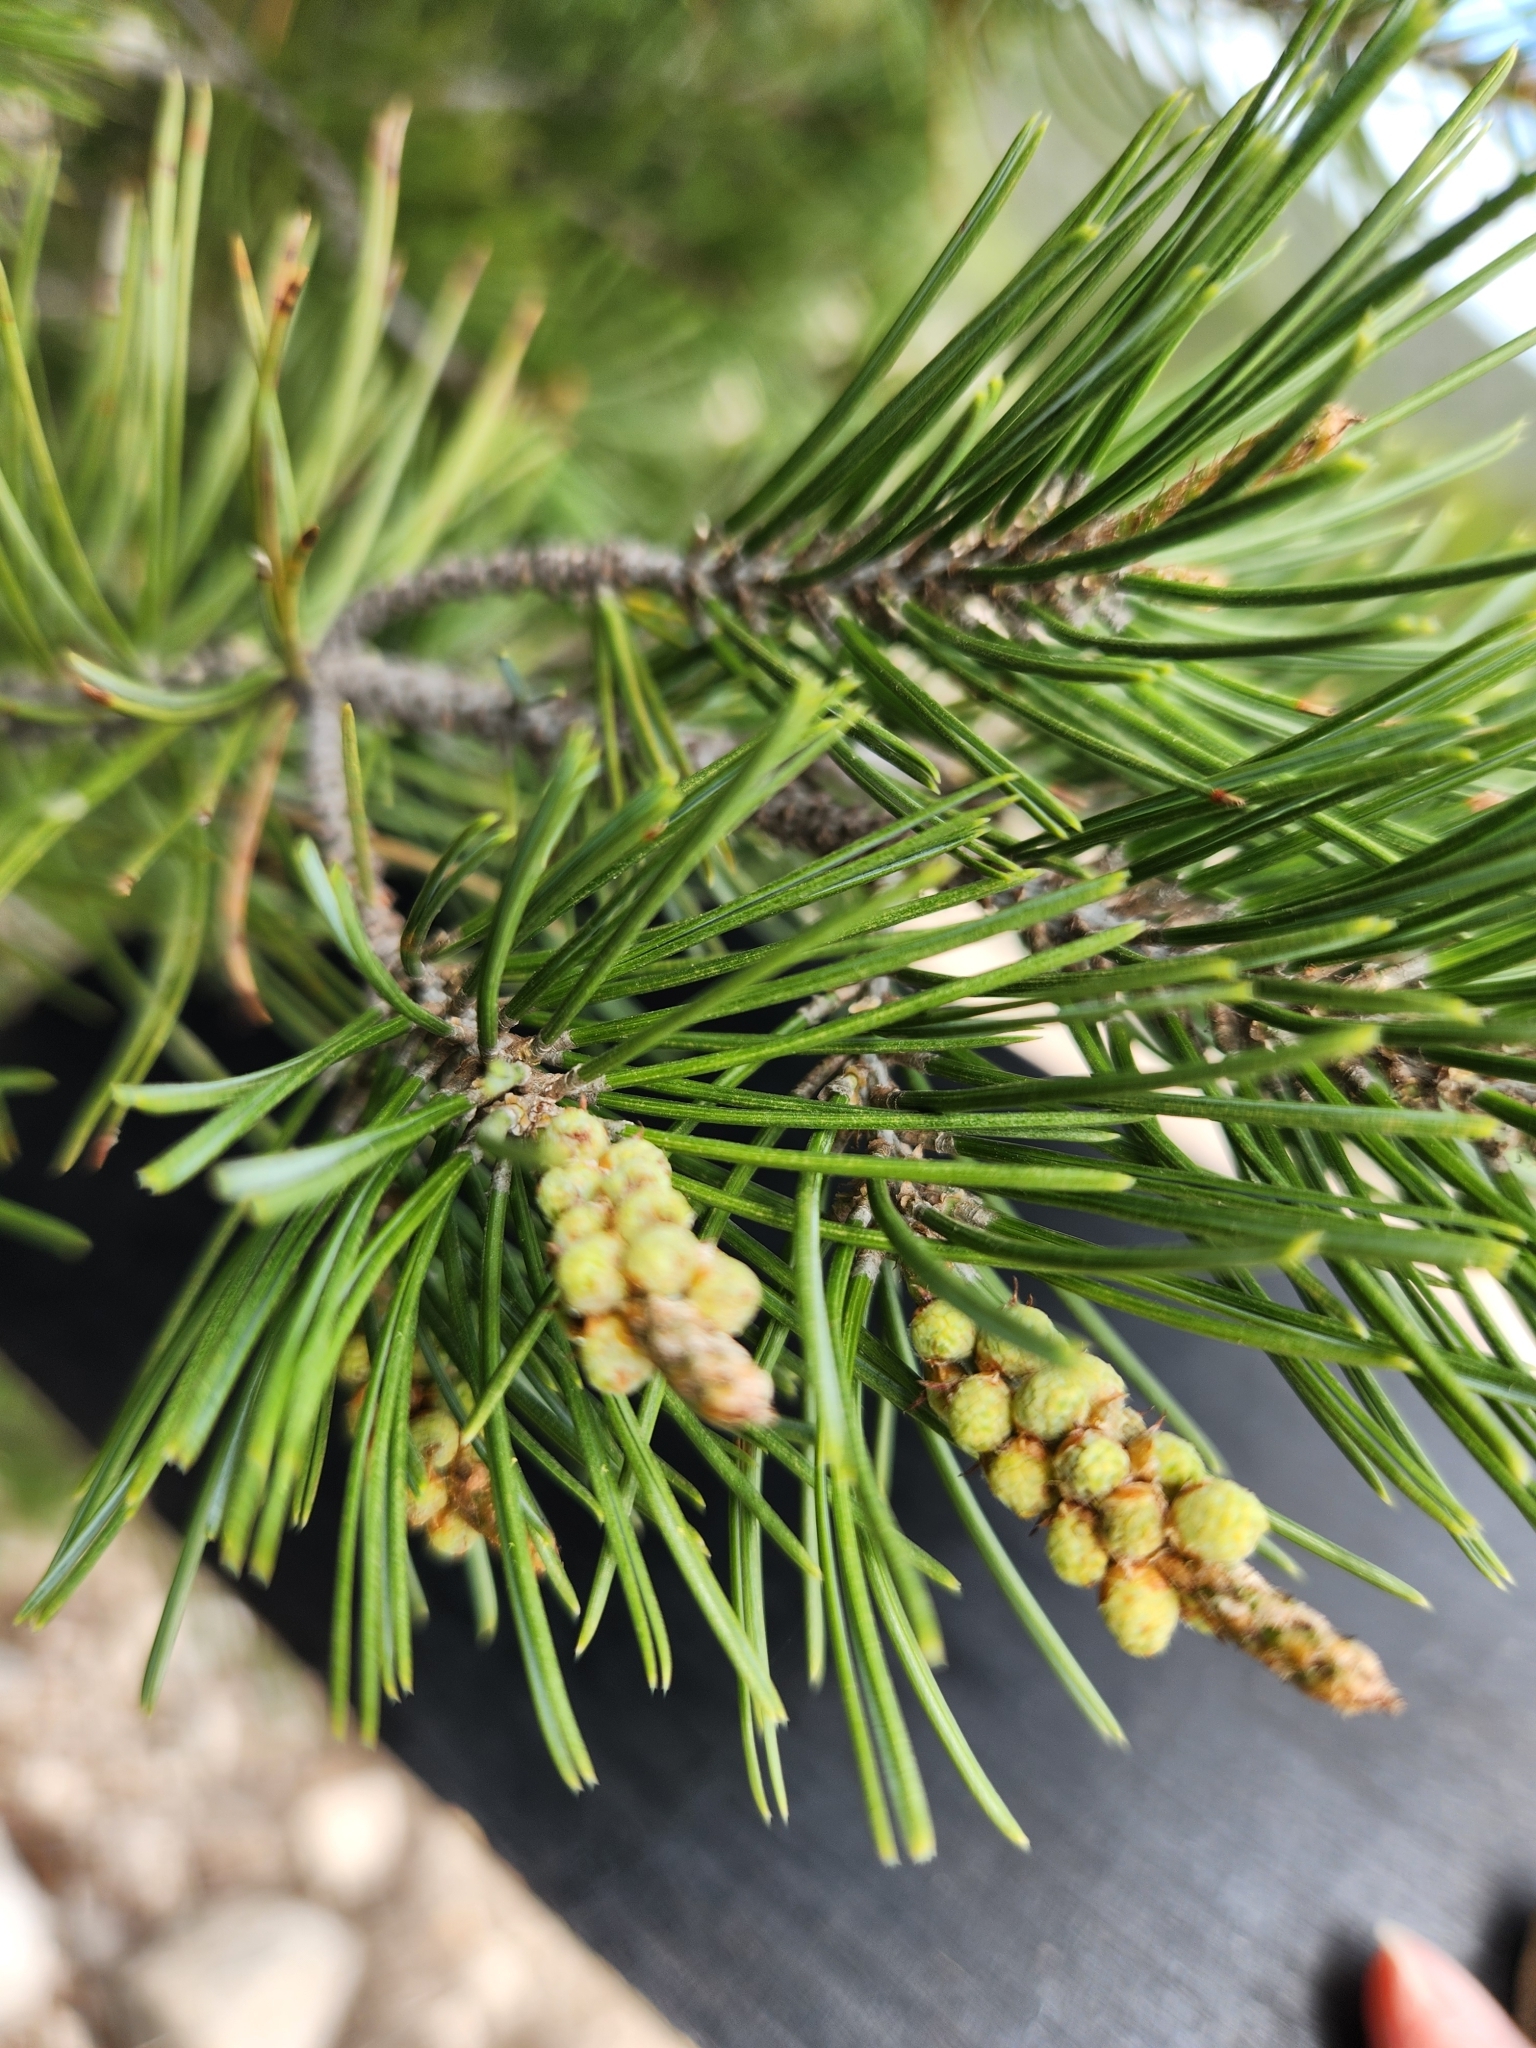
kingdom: Plantae
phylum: Tracheophyta
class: Pinopsida
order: Pinales
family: Pinaceae
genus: Pinus
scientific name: Pinus remota
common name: Nut pine
